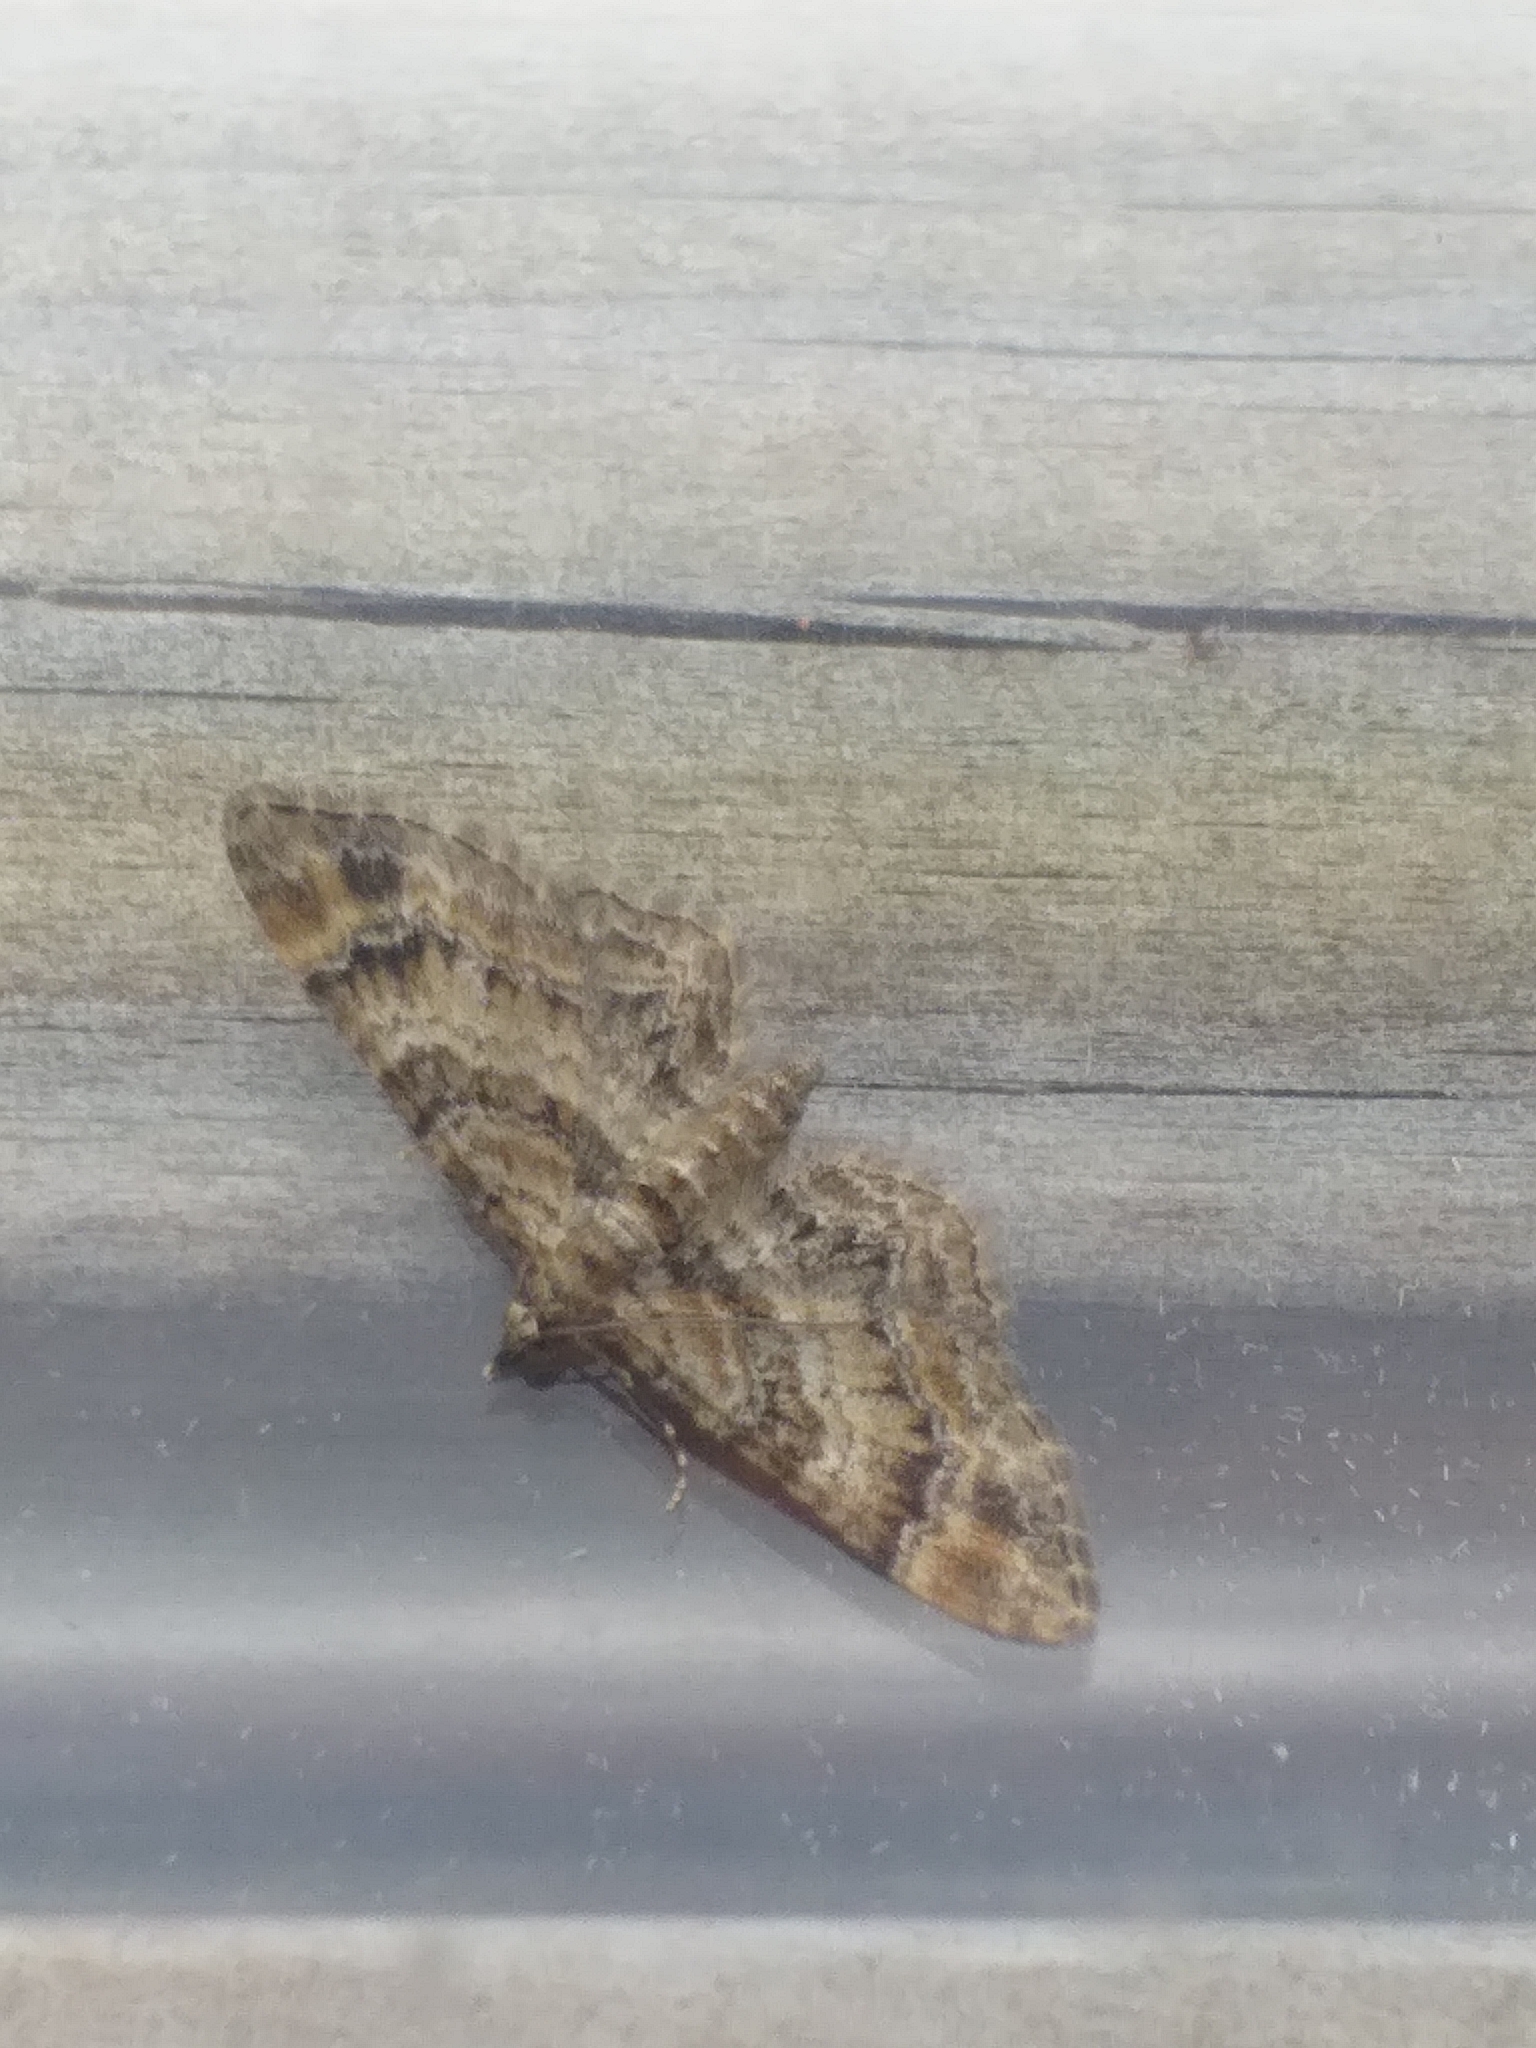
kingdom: Animalia
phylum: Arthropoda
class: Insecta
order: Lepidoptera
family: Geometridae
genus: Gymnoscelis
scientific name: Gymnoscelis rufifasciata
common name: Double-striped pug
